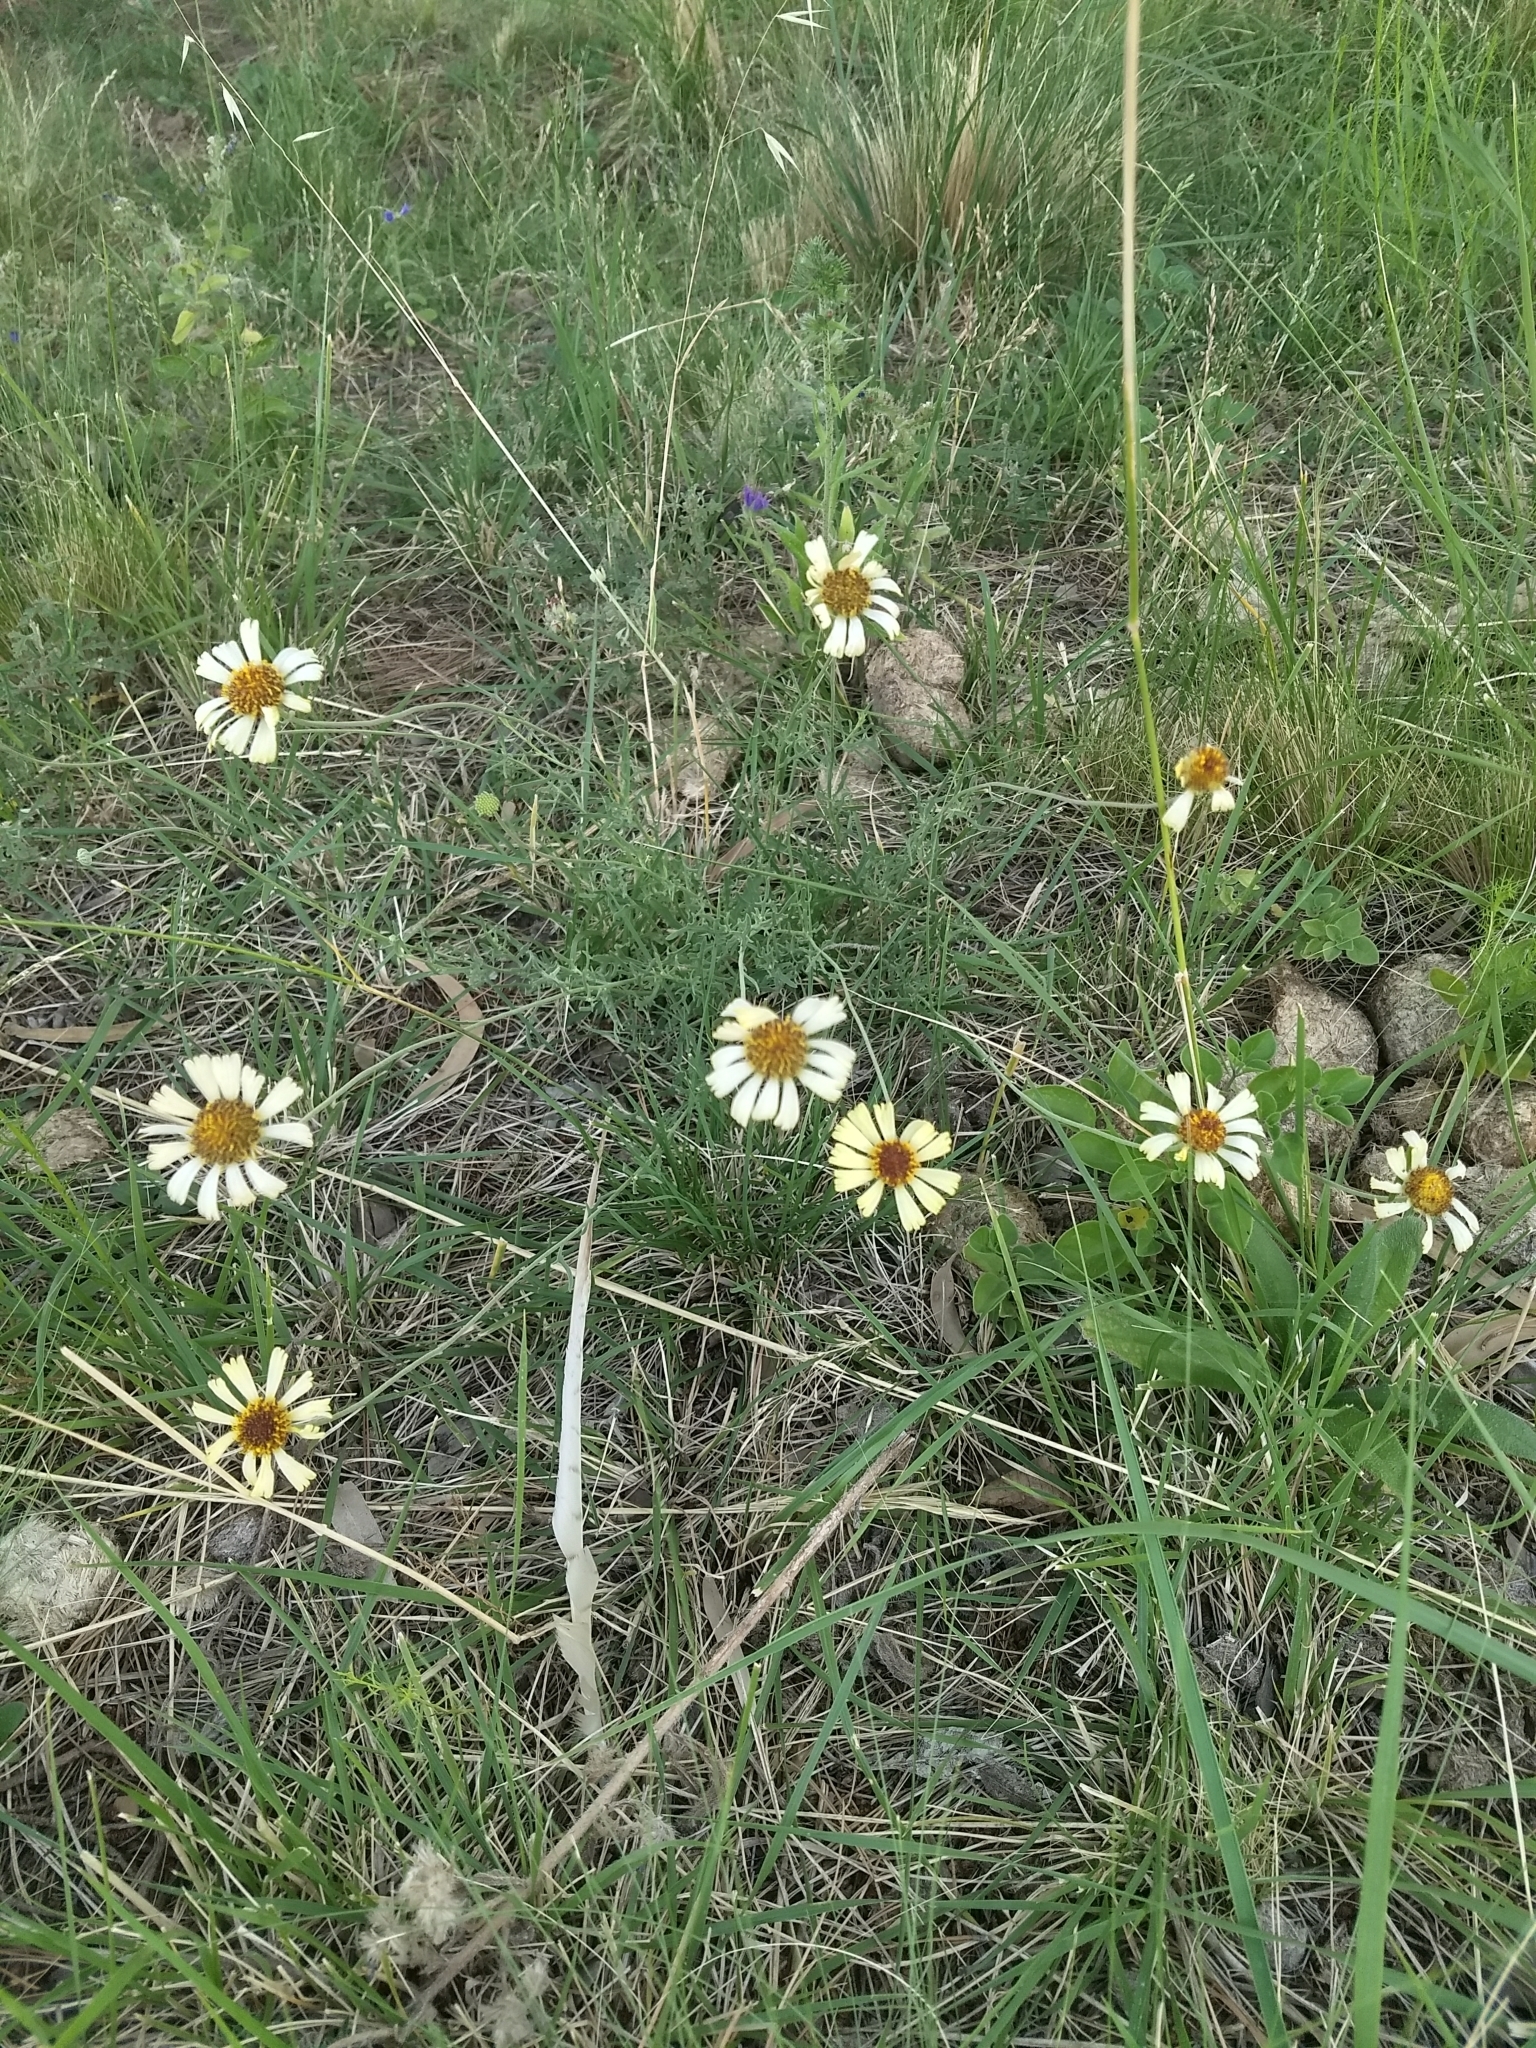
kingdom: Plantae
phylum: Tracheophyta
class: Magnoliopsida
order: Asterales
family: Asteraceae
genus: Helenium
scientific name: Helenium uniflorum
